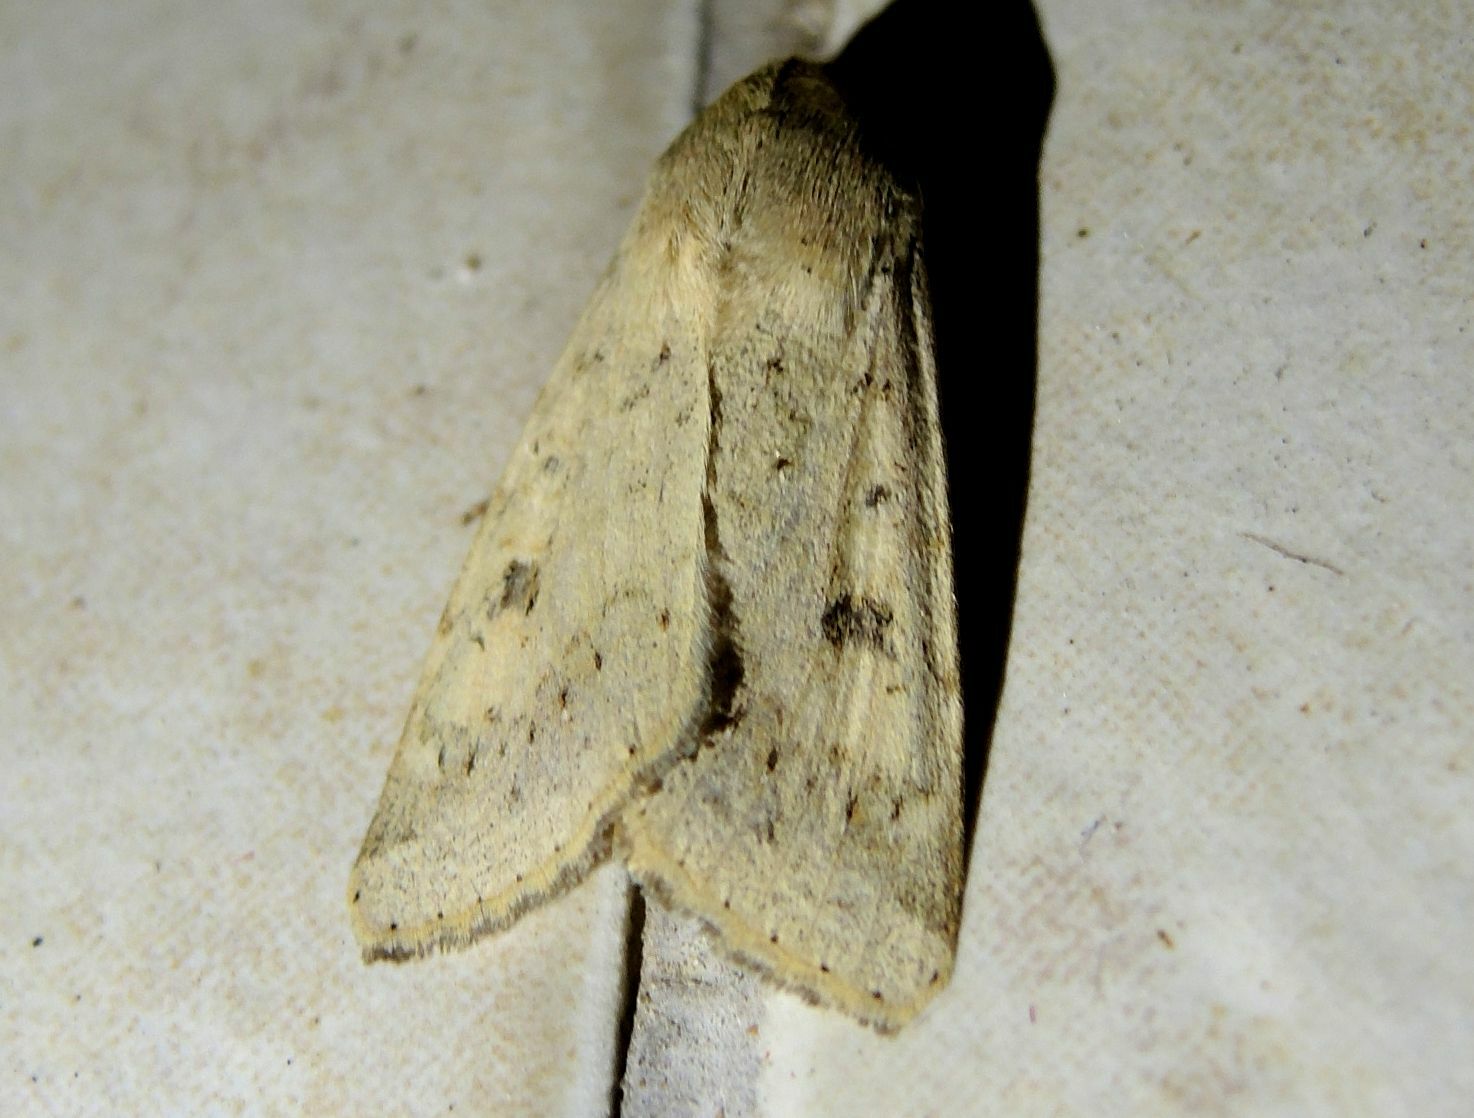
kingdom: Animalia
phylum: Arthropoda
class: Insecta
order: Lepidoptera
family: Noctuidae
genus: Helicoverpa
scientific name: Helicoverpa armigera
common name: Cotton bollworm
